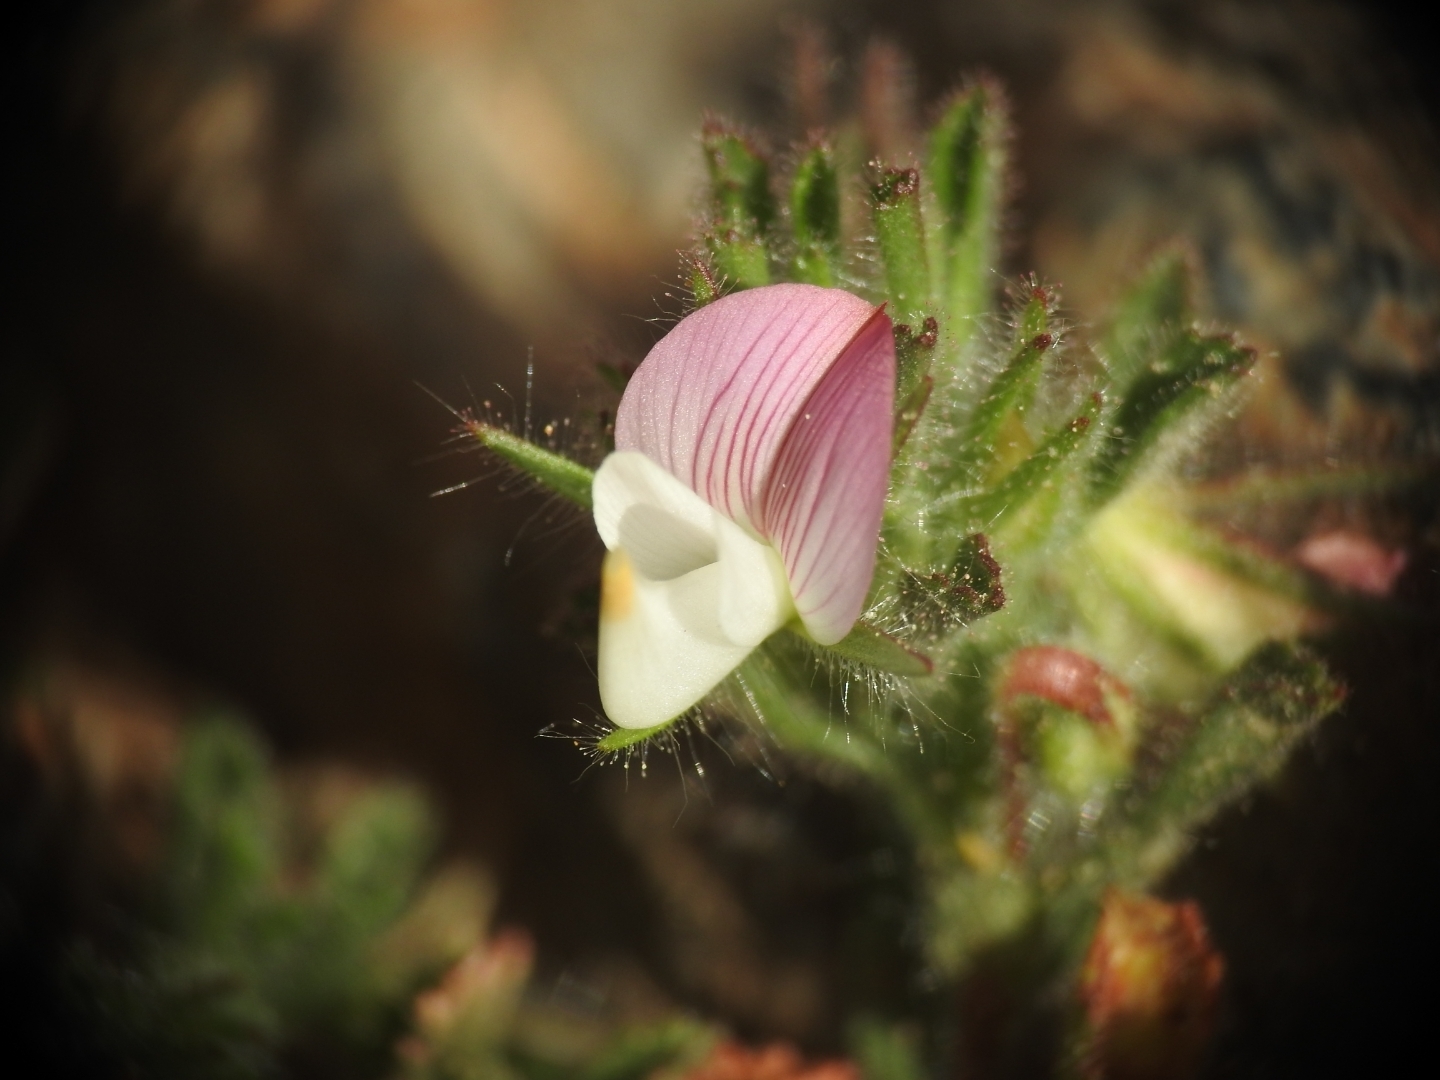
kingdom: Plantae
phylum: Tracheophyta
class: Magnoliopsida
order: Fabales
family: Fabaceae
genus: Ononis
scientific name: Ononis reclinata
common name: Small restharrow
